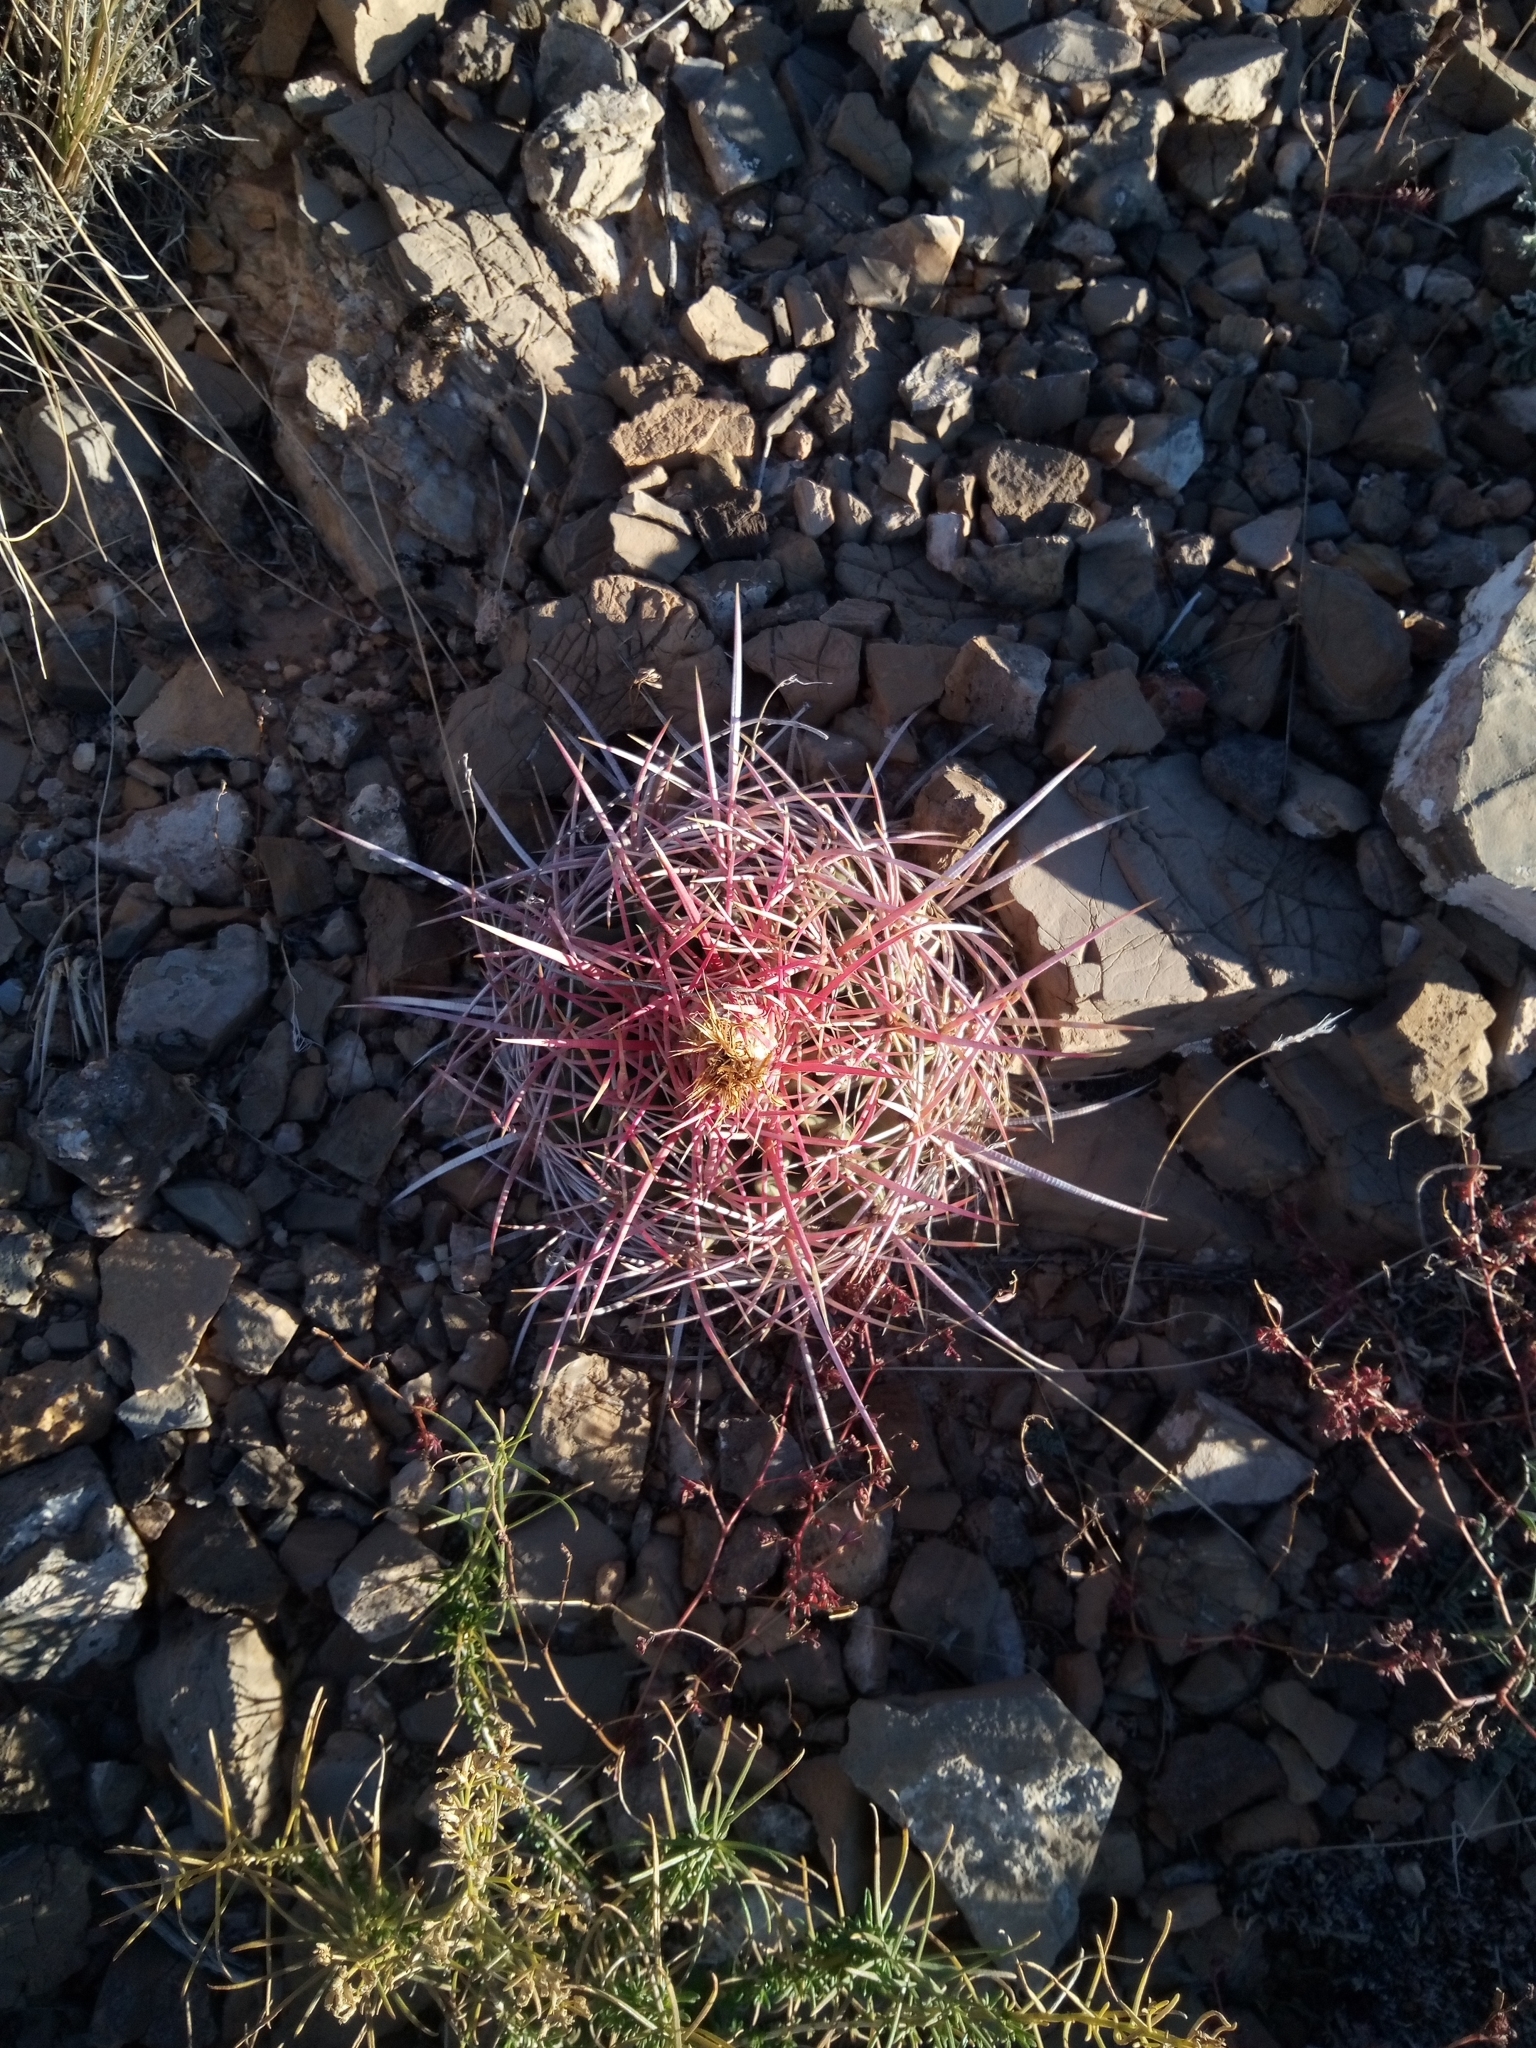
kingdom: Plantae
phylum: Tracheophyta
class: Magnoliopsida
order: Caryophyllales
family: Cactaceae
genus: Echinocactus
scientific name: Echinocactus polycephalus
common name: Cottontop cactus
